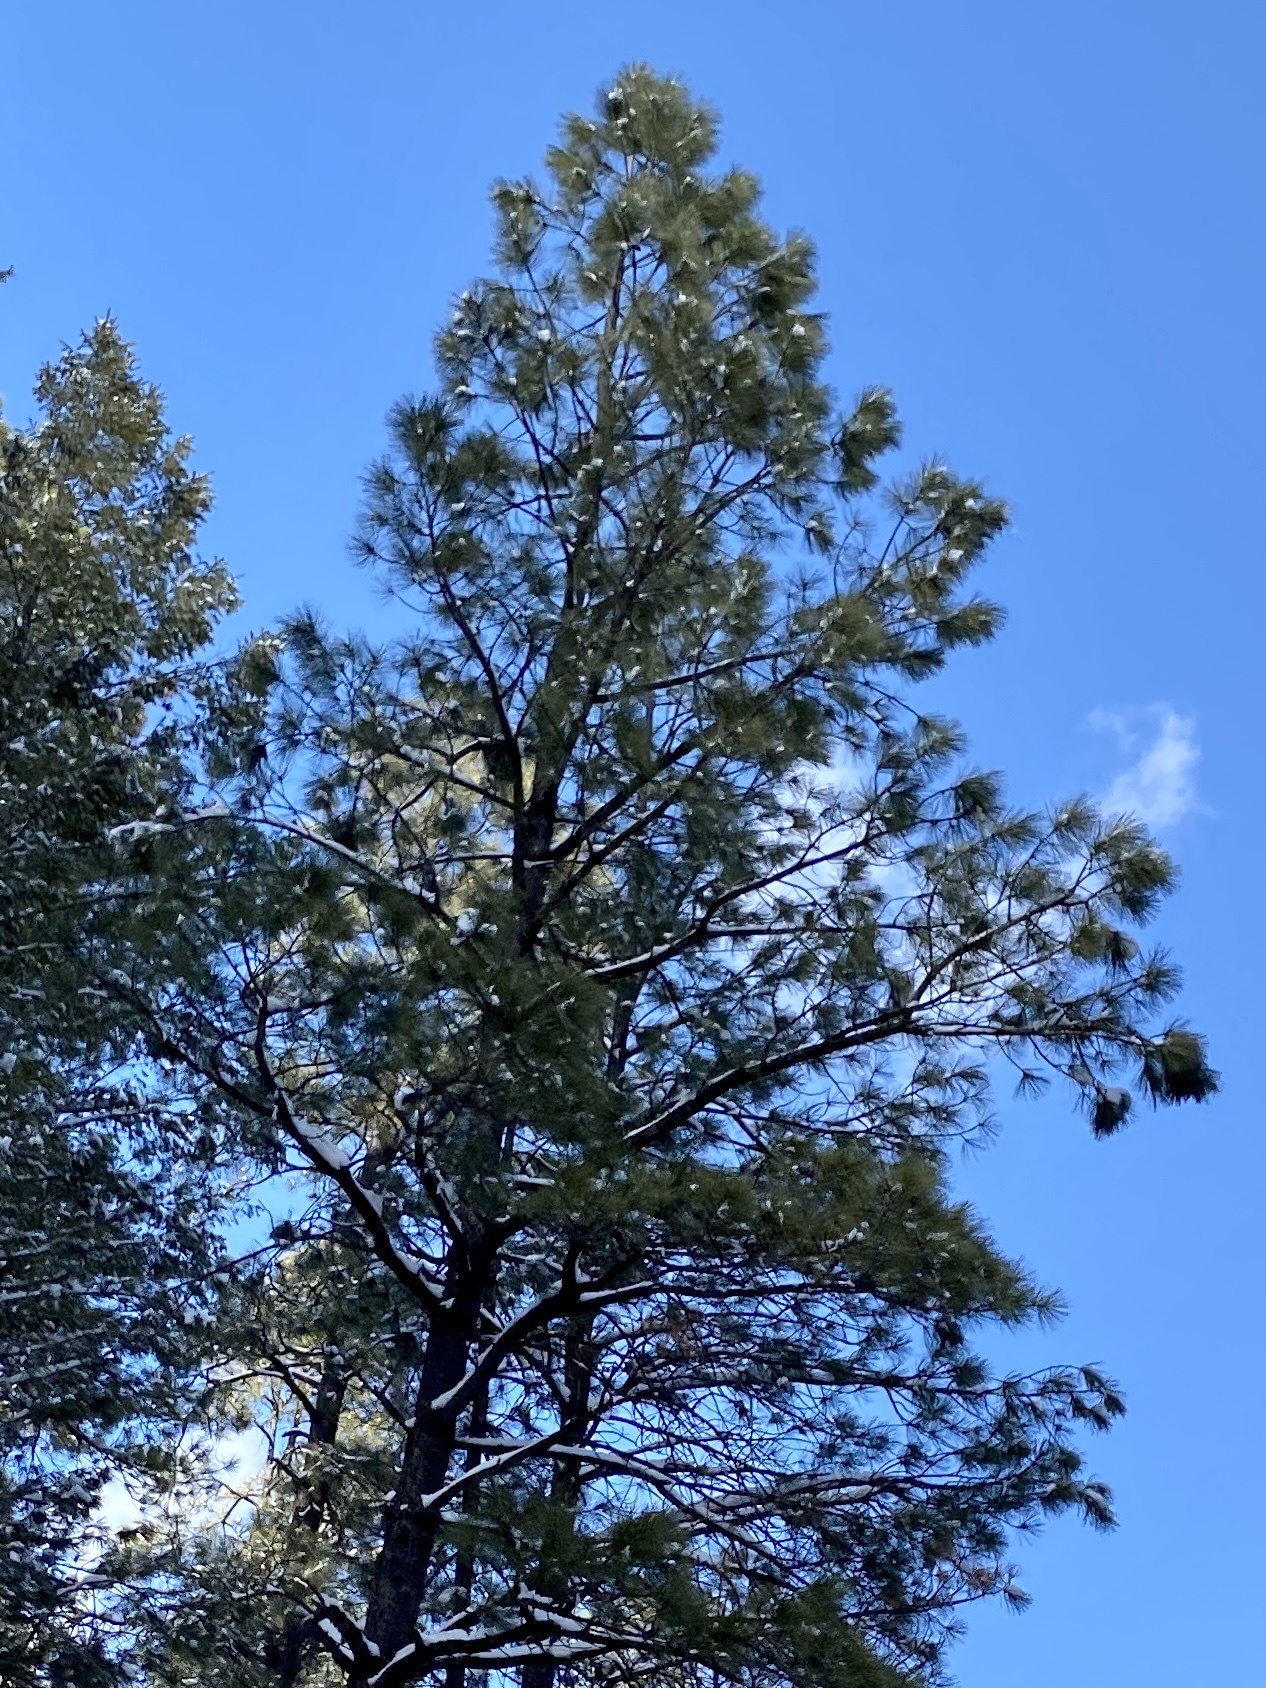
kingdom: Plantae
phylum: Tracheophyta
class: Pinopsida
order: Pinales
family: Pinaceae
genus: Pinus
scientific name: Pinus ponderosa
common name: Western yellow-pine
